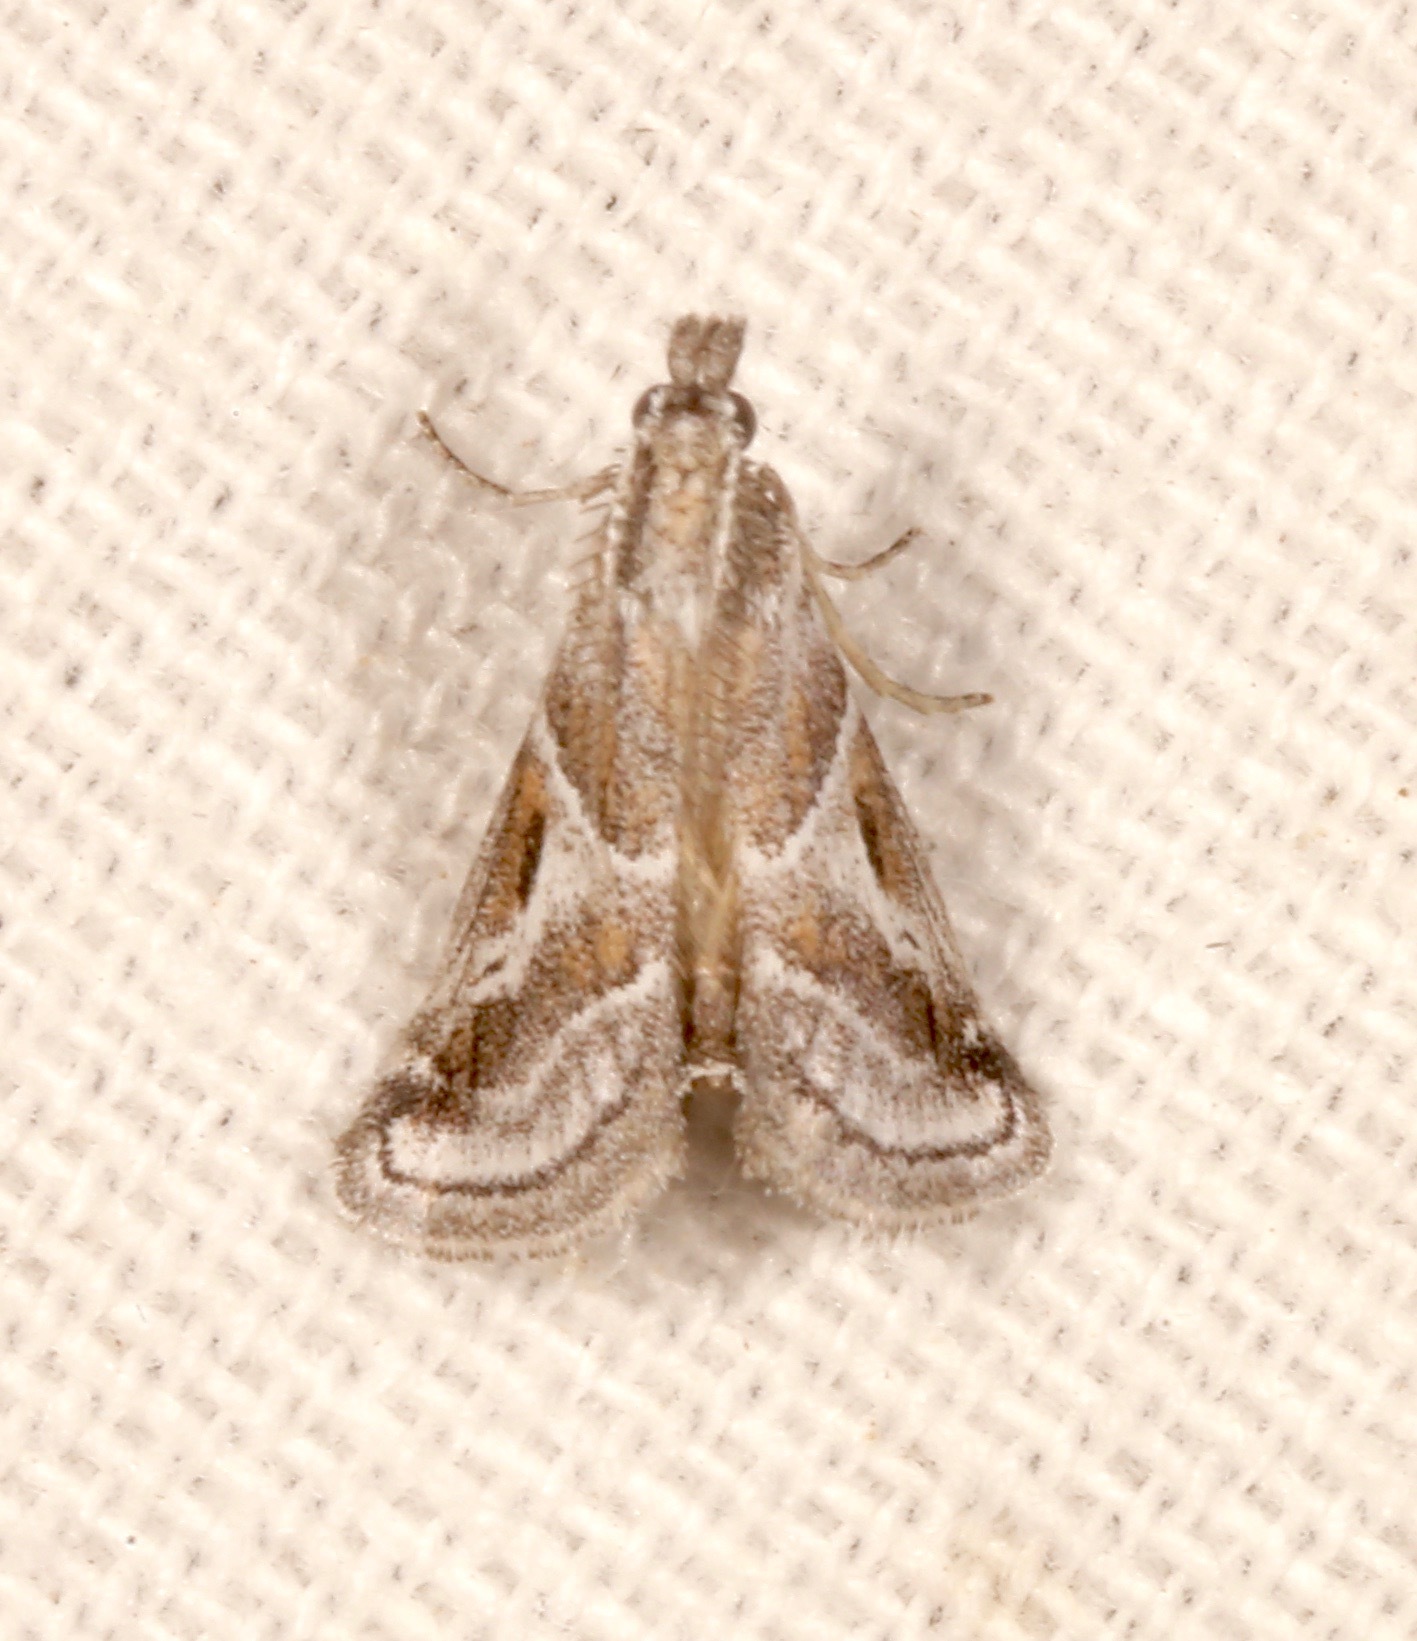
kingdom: Animalia
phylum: Arthropoda
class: Insecta
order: Lepidoptera
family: Pyralidae
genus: Alpheias
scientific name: Alpheias Decaturia pectinalis
